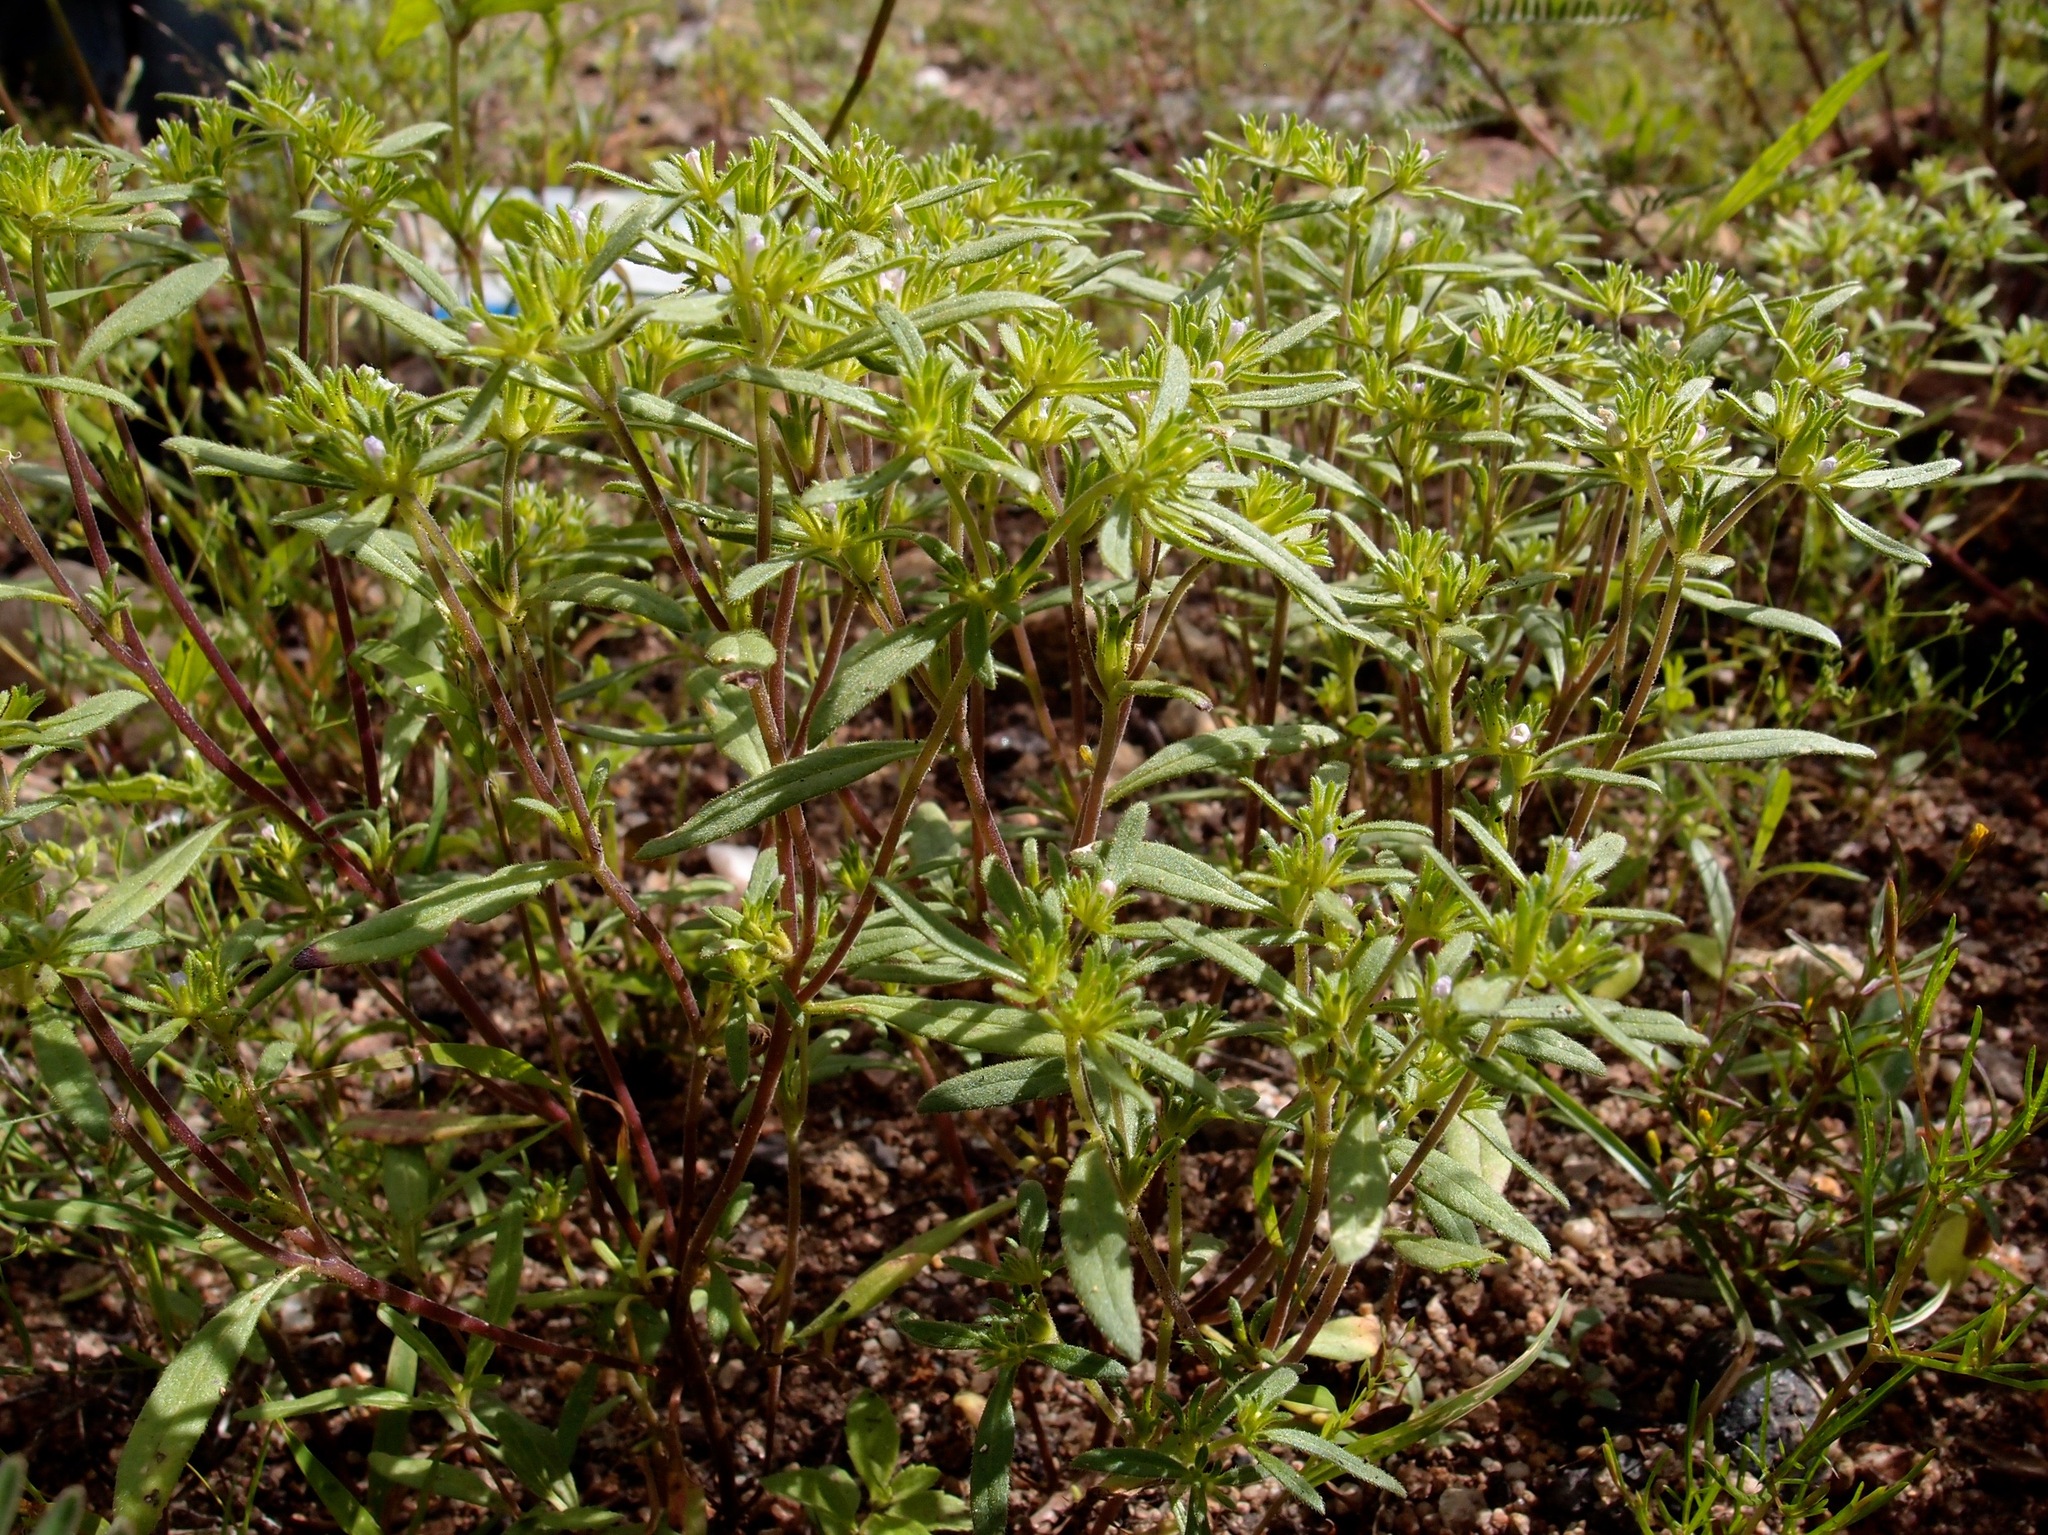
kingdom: Plantae
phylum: Tracheophyta
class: Magnoliopsida
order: Boraginales
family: Namaceae
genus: Nama
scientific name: Nama dichotoma
